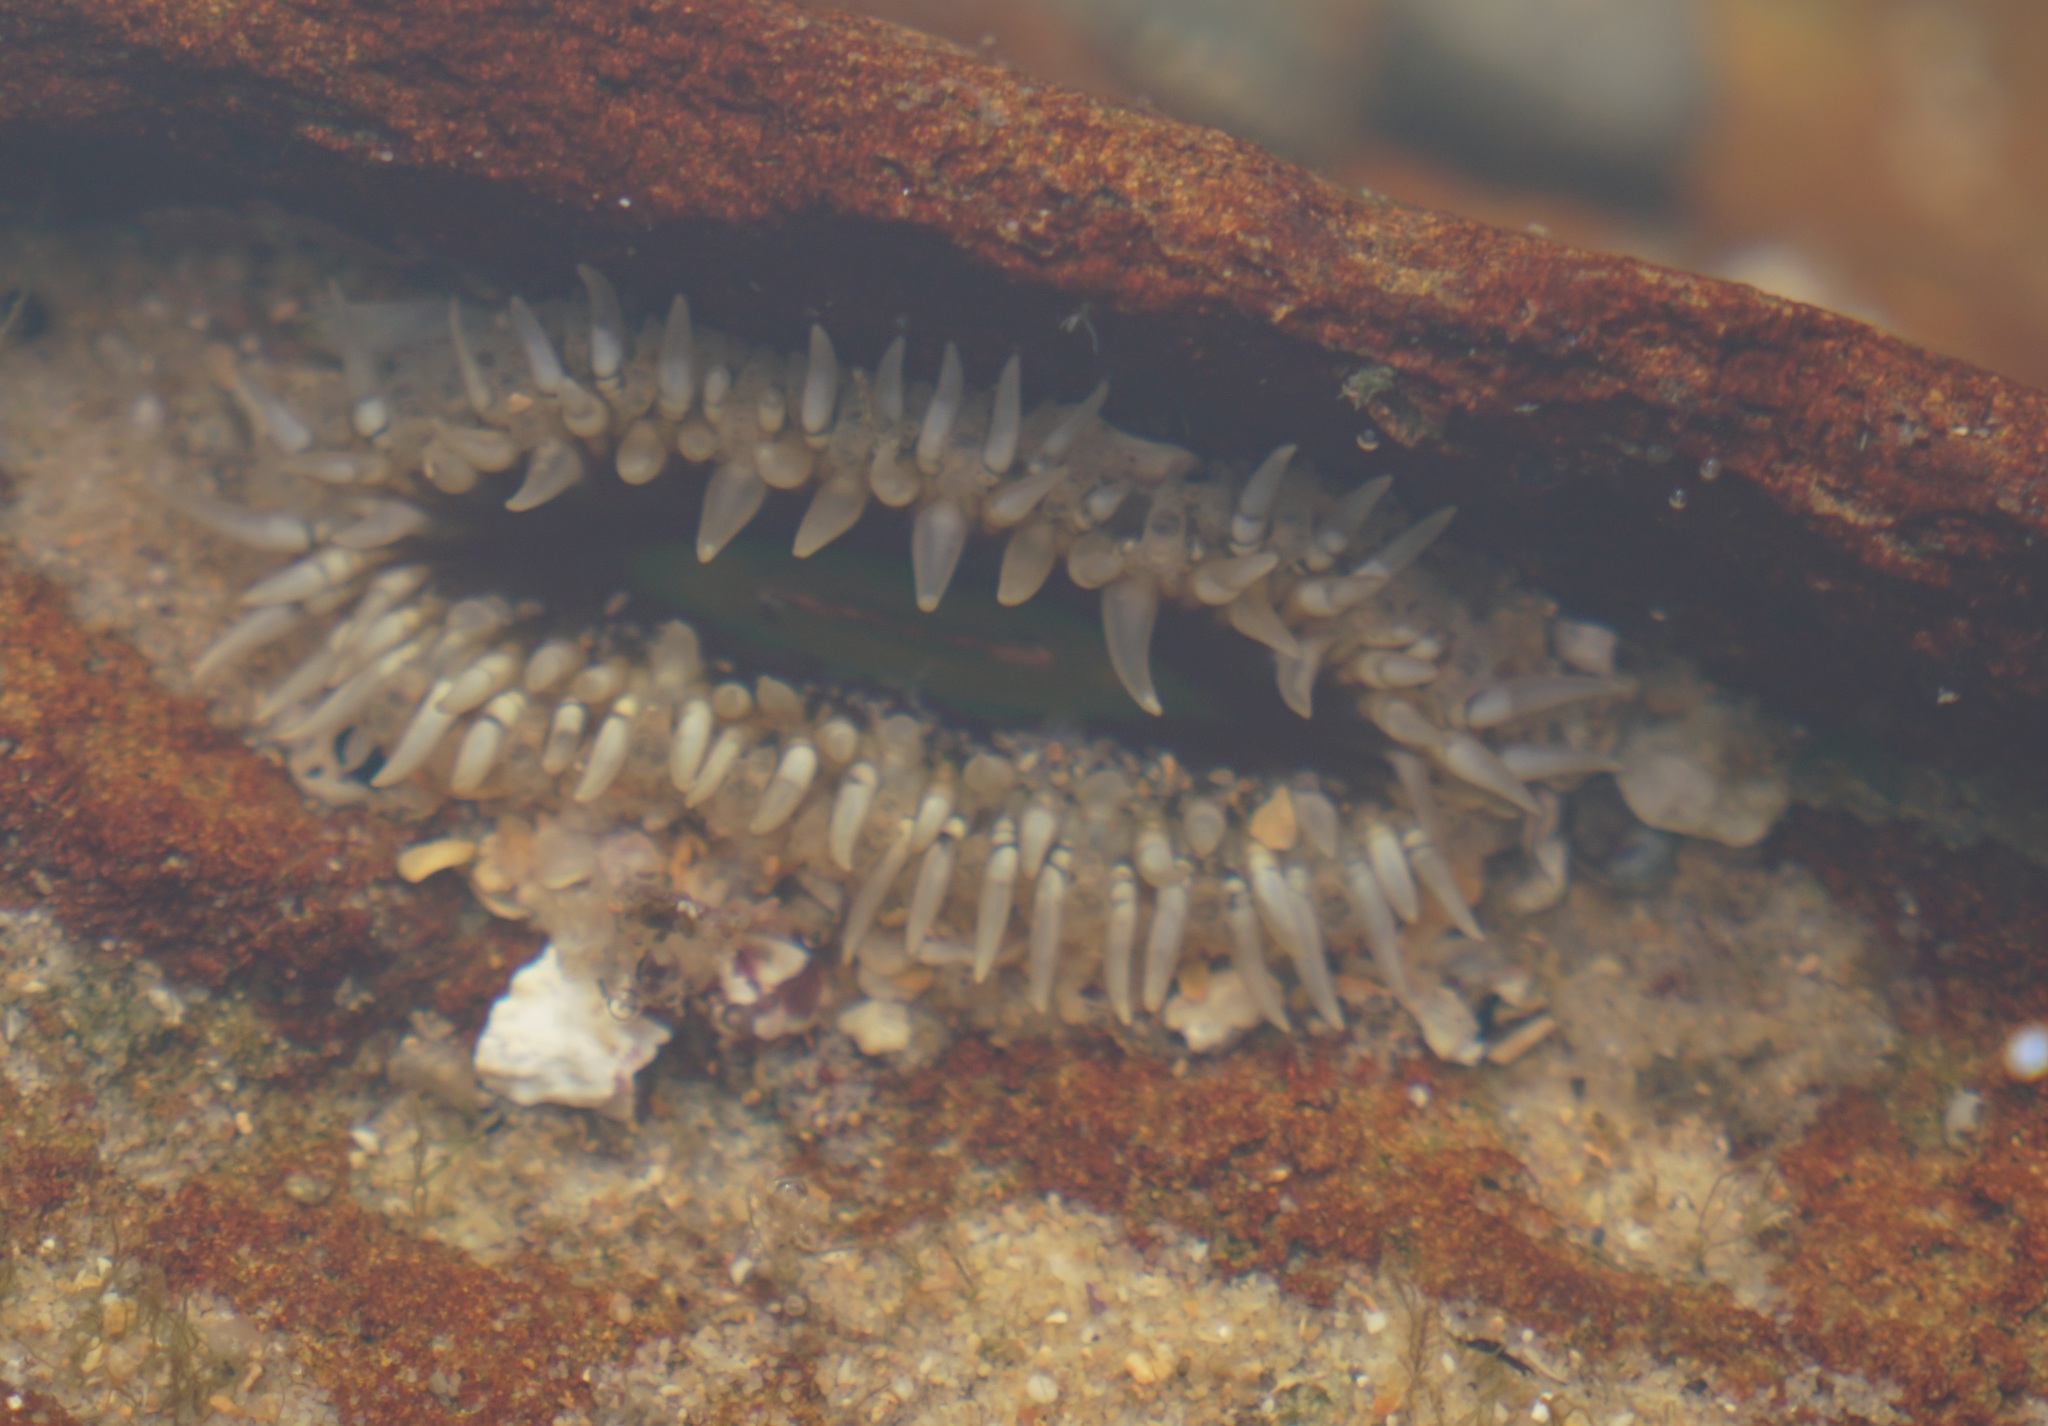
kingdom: Animalia
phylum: Cnidaria
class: Anthozoa
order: Actiniaria
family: Actiniidae
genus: Oulactis
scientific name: Oulactis muscosa
